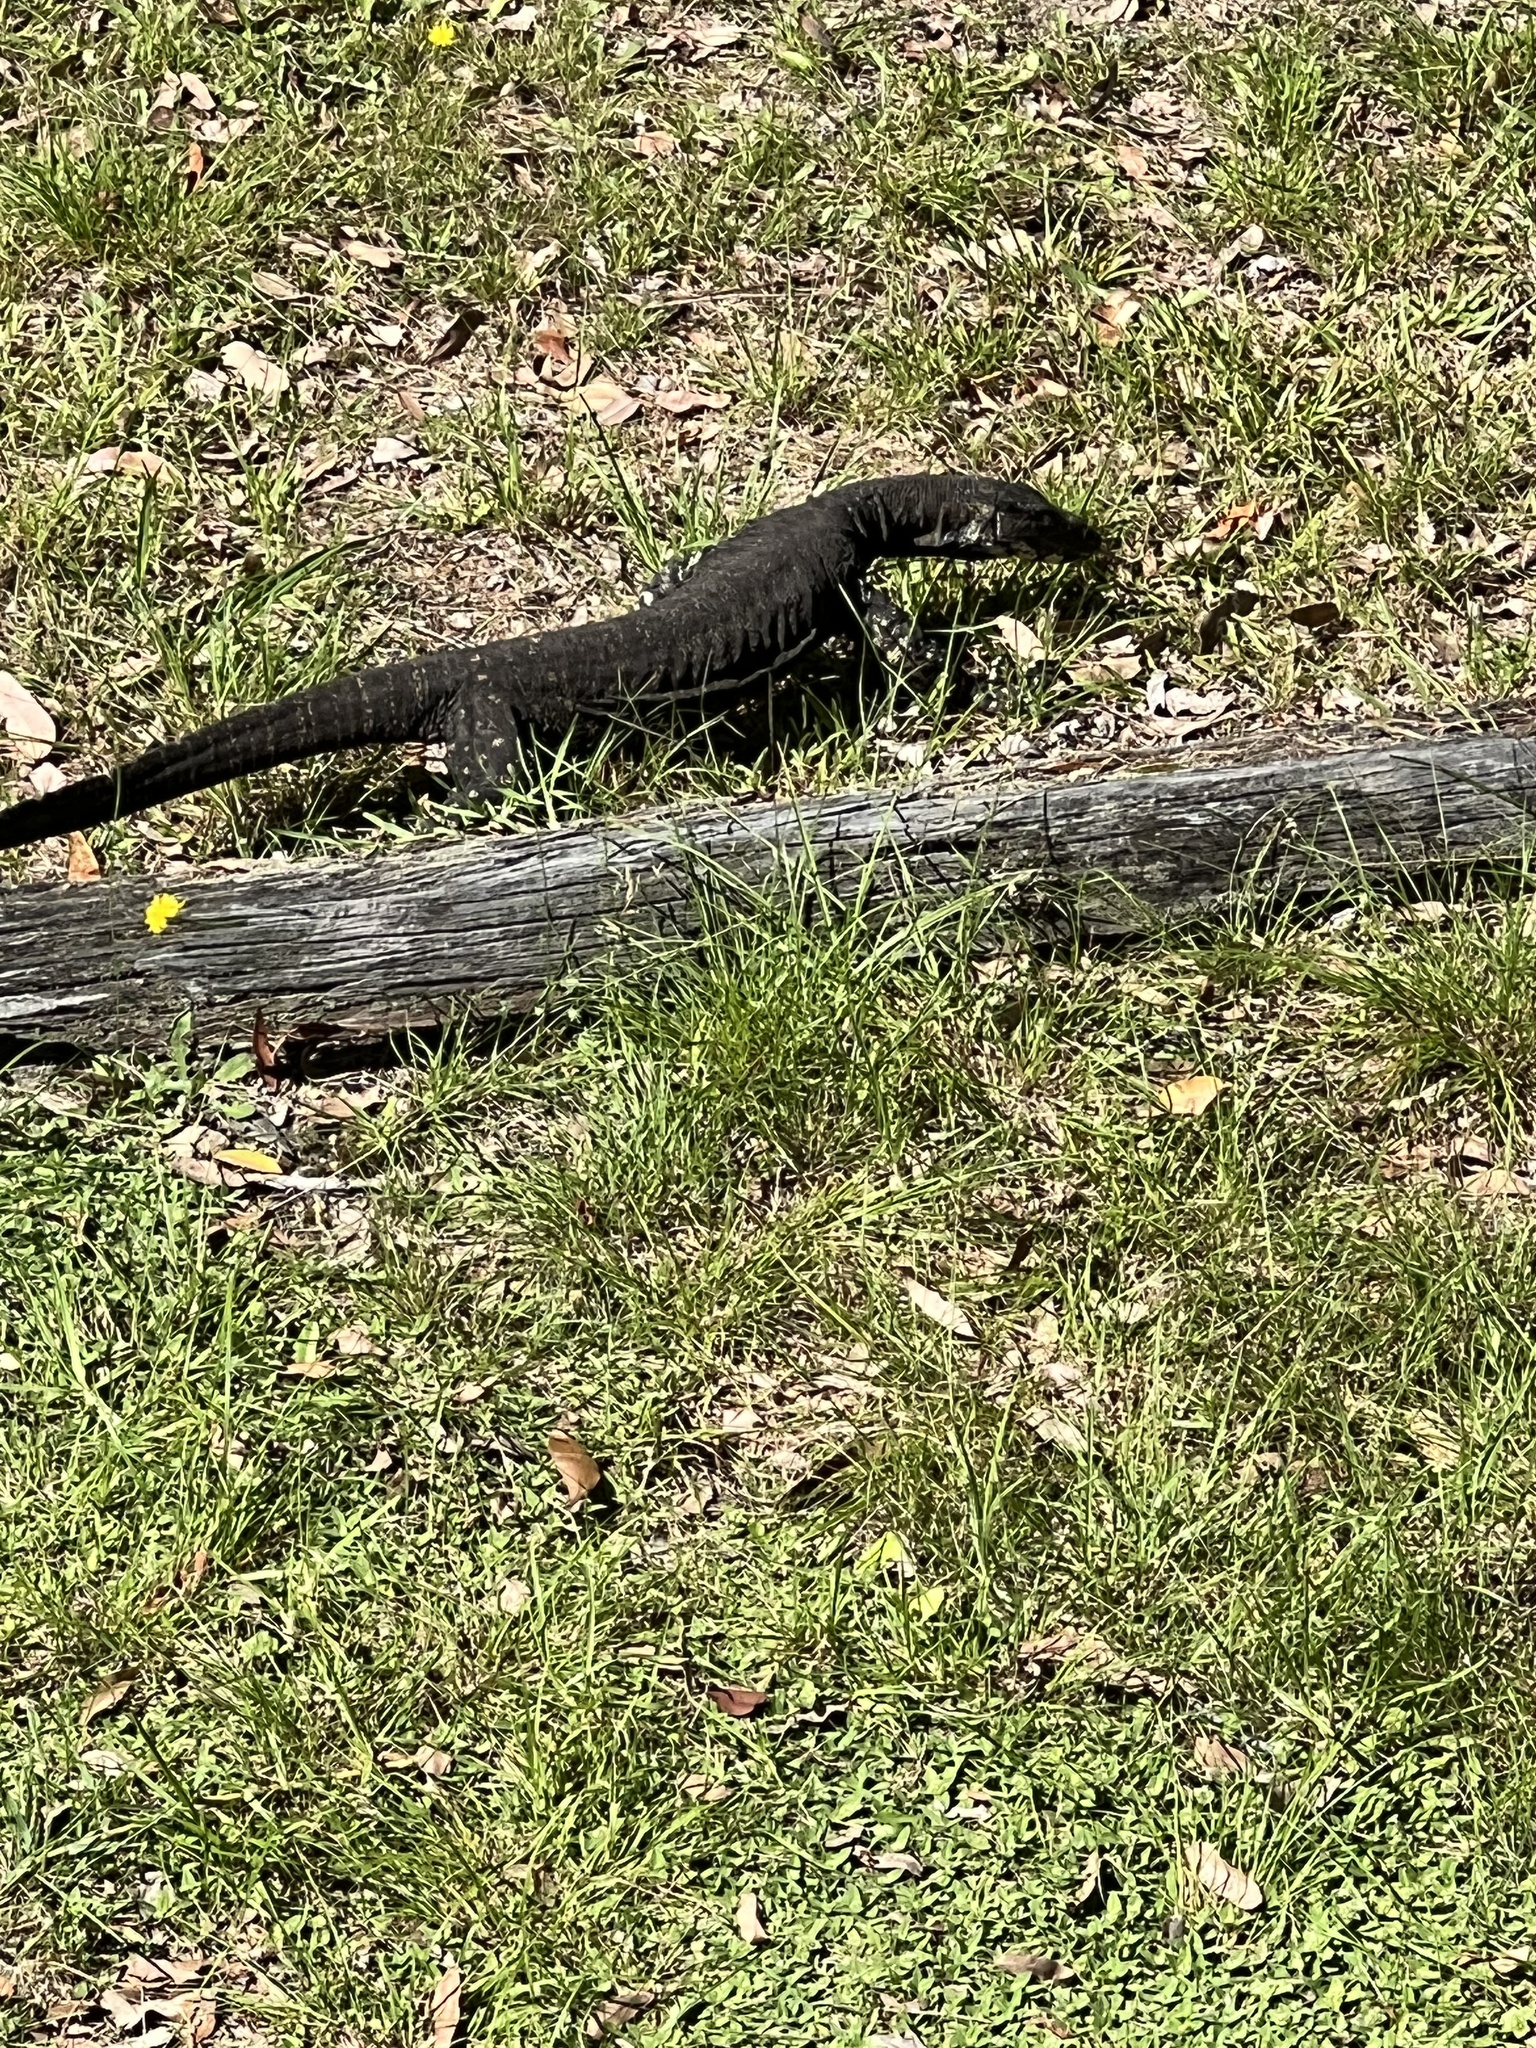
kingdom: Animalia
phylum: Chordata
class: Squamata
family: Varanidae
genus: Varanus
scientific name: Varanus varius
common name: Lace monitor
